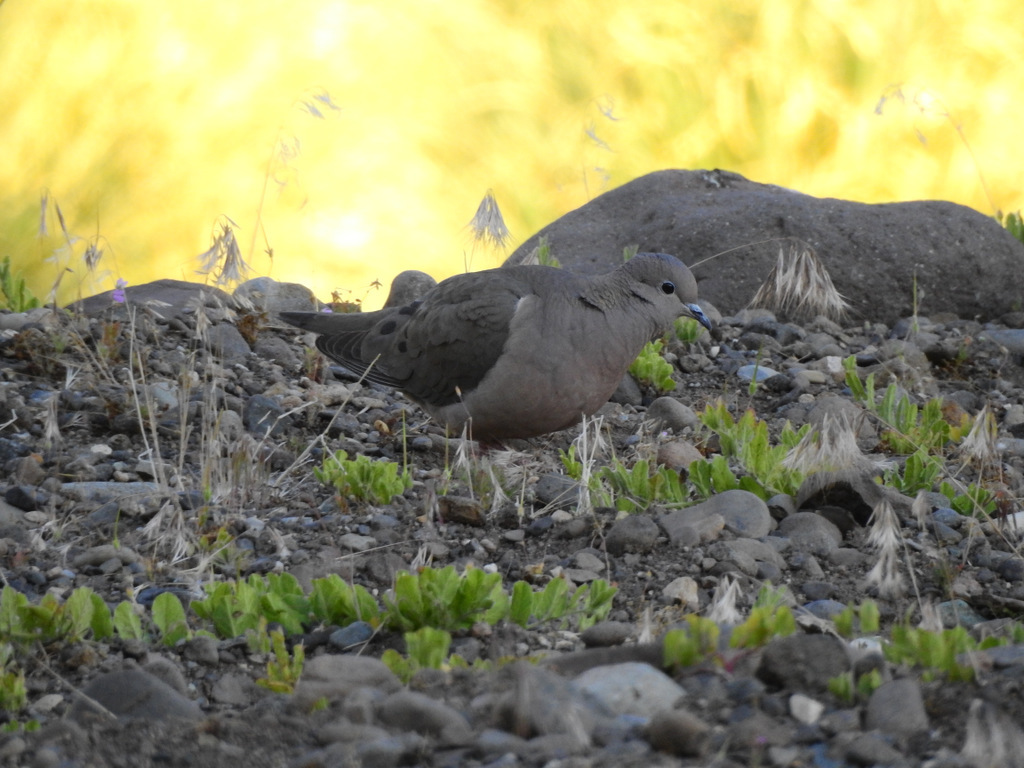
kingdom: Animalia
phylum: Chordata
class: Aves
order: Columbiformes
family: Columbidae
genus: Zenaida
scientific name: Zenaida auriculata
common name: Eared dove
